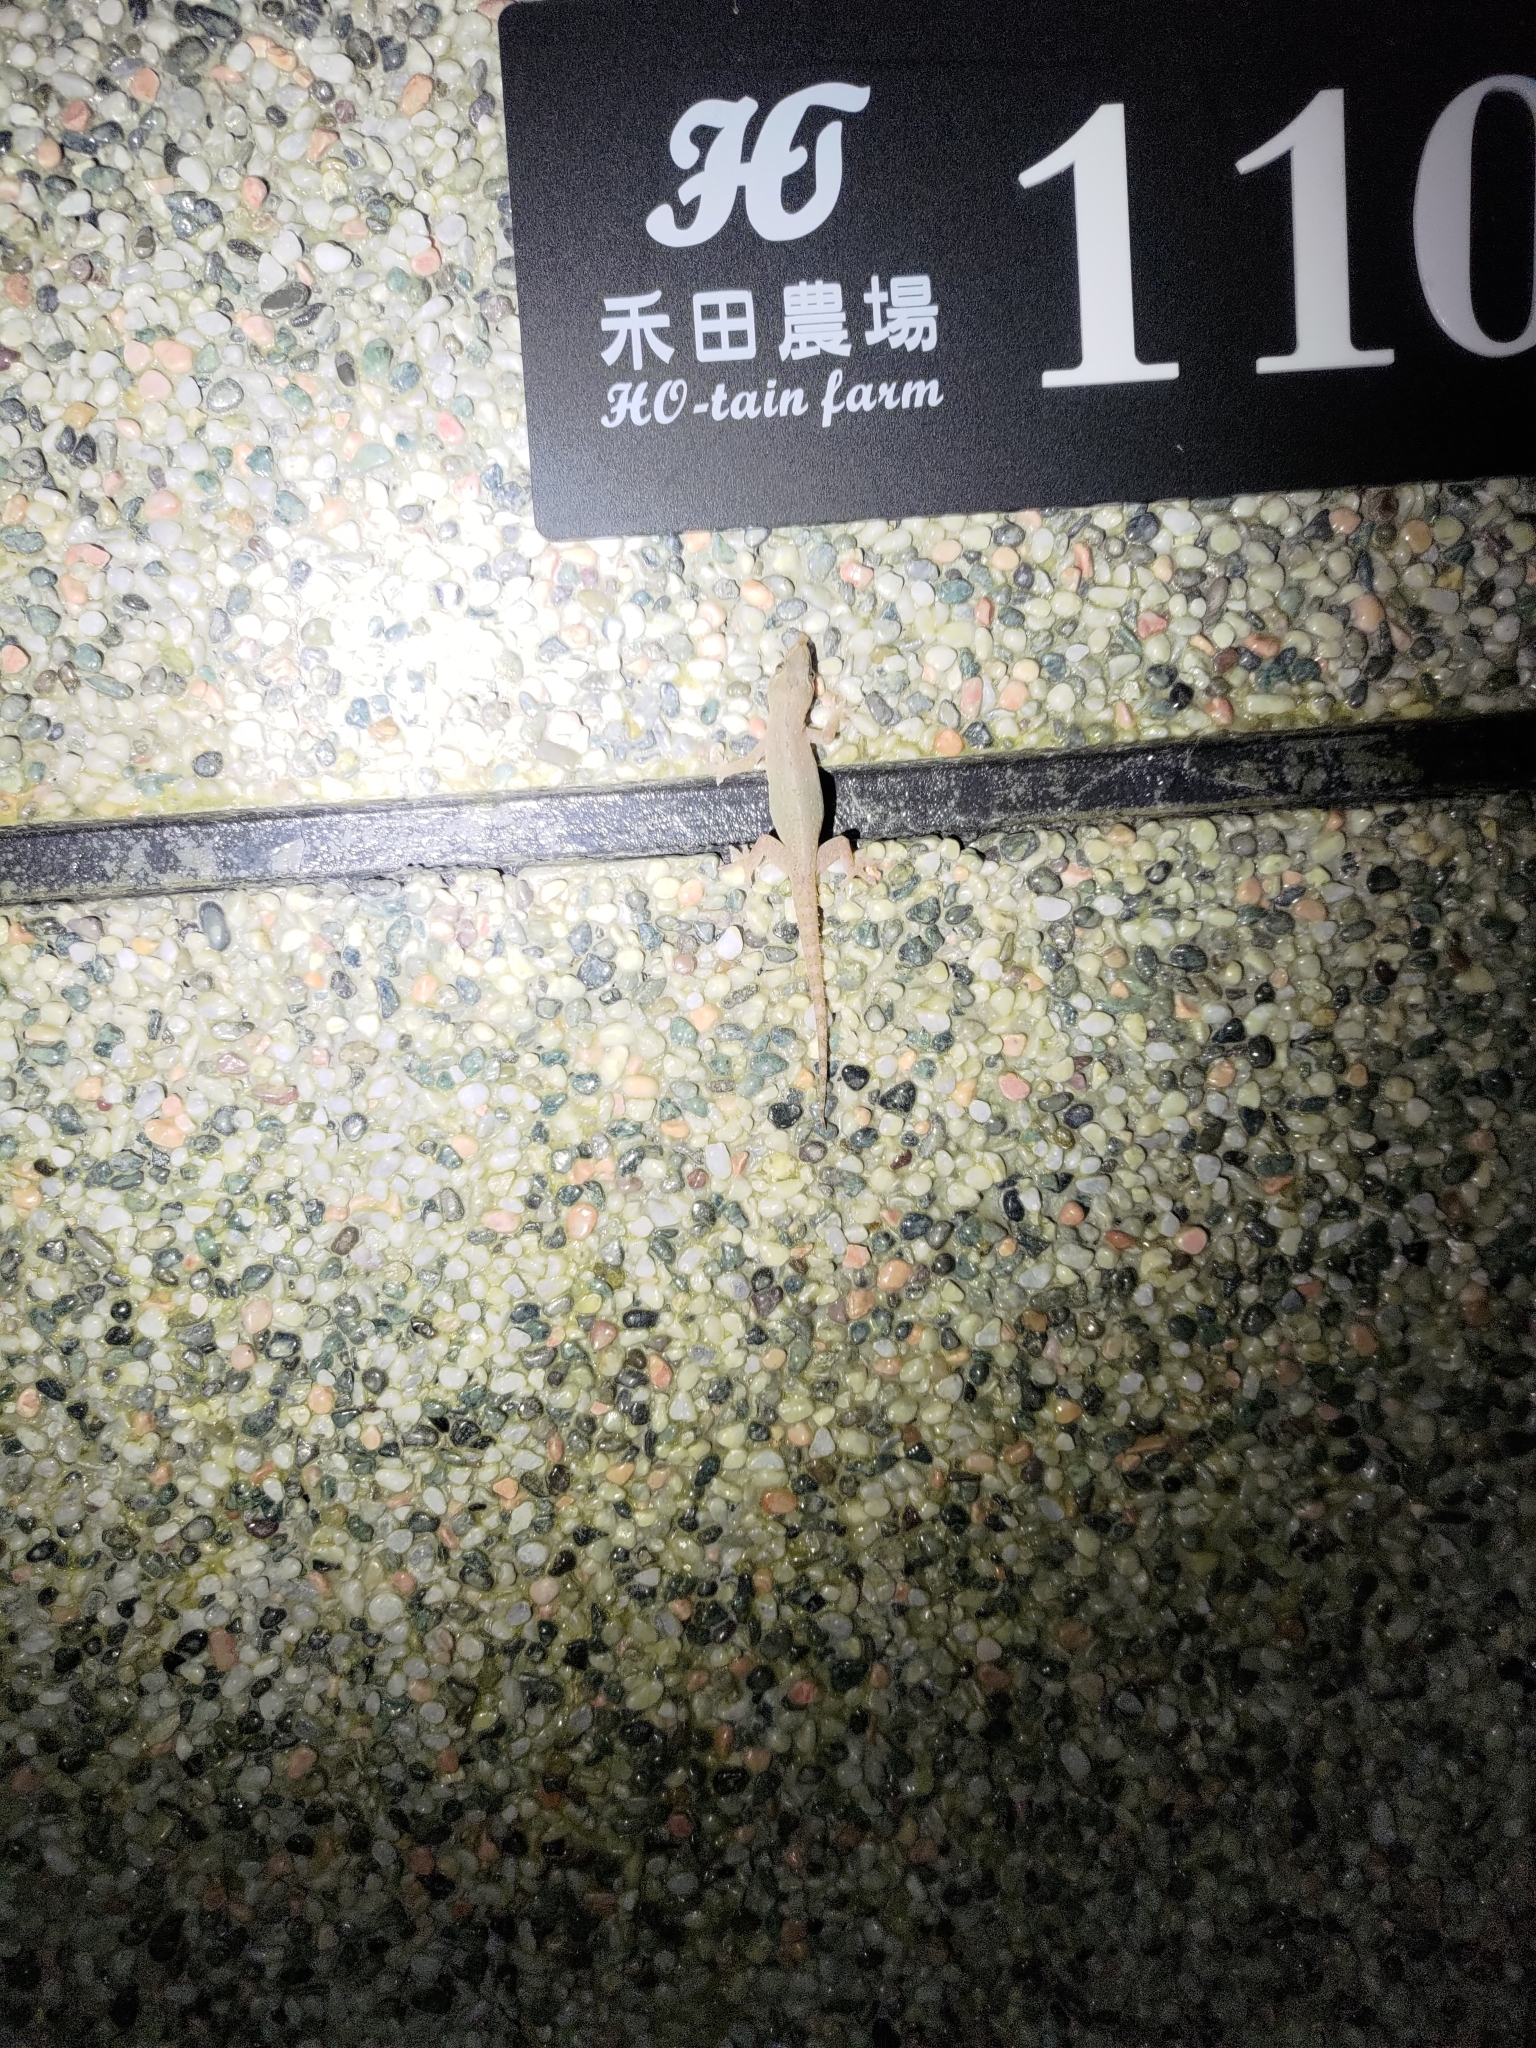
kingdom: Animalia
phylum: Chordata
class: Squamata
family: Gekkonidae
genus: Hemidactylus
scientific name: Hemidactylus frenatus
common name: Common house gecko
